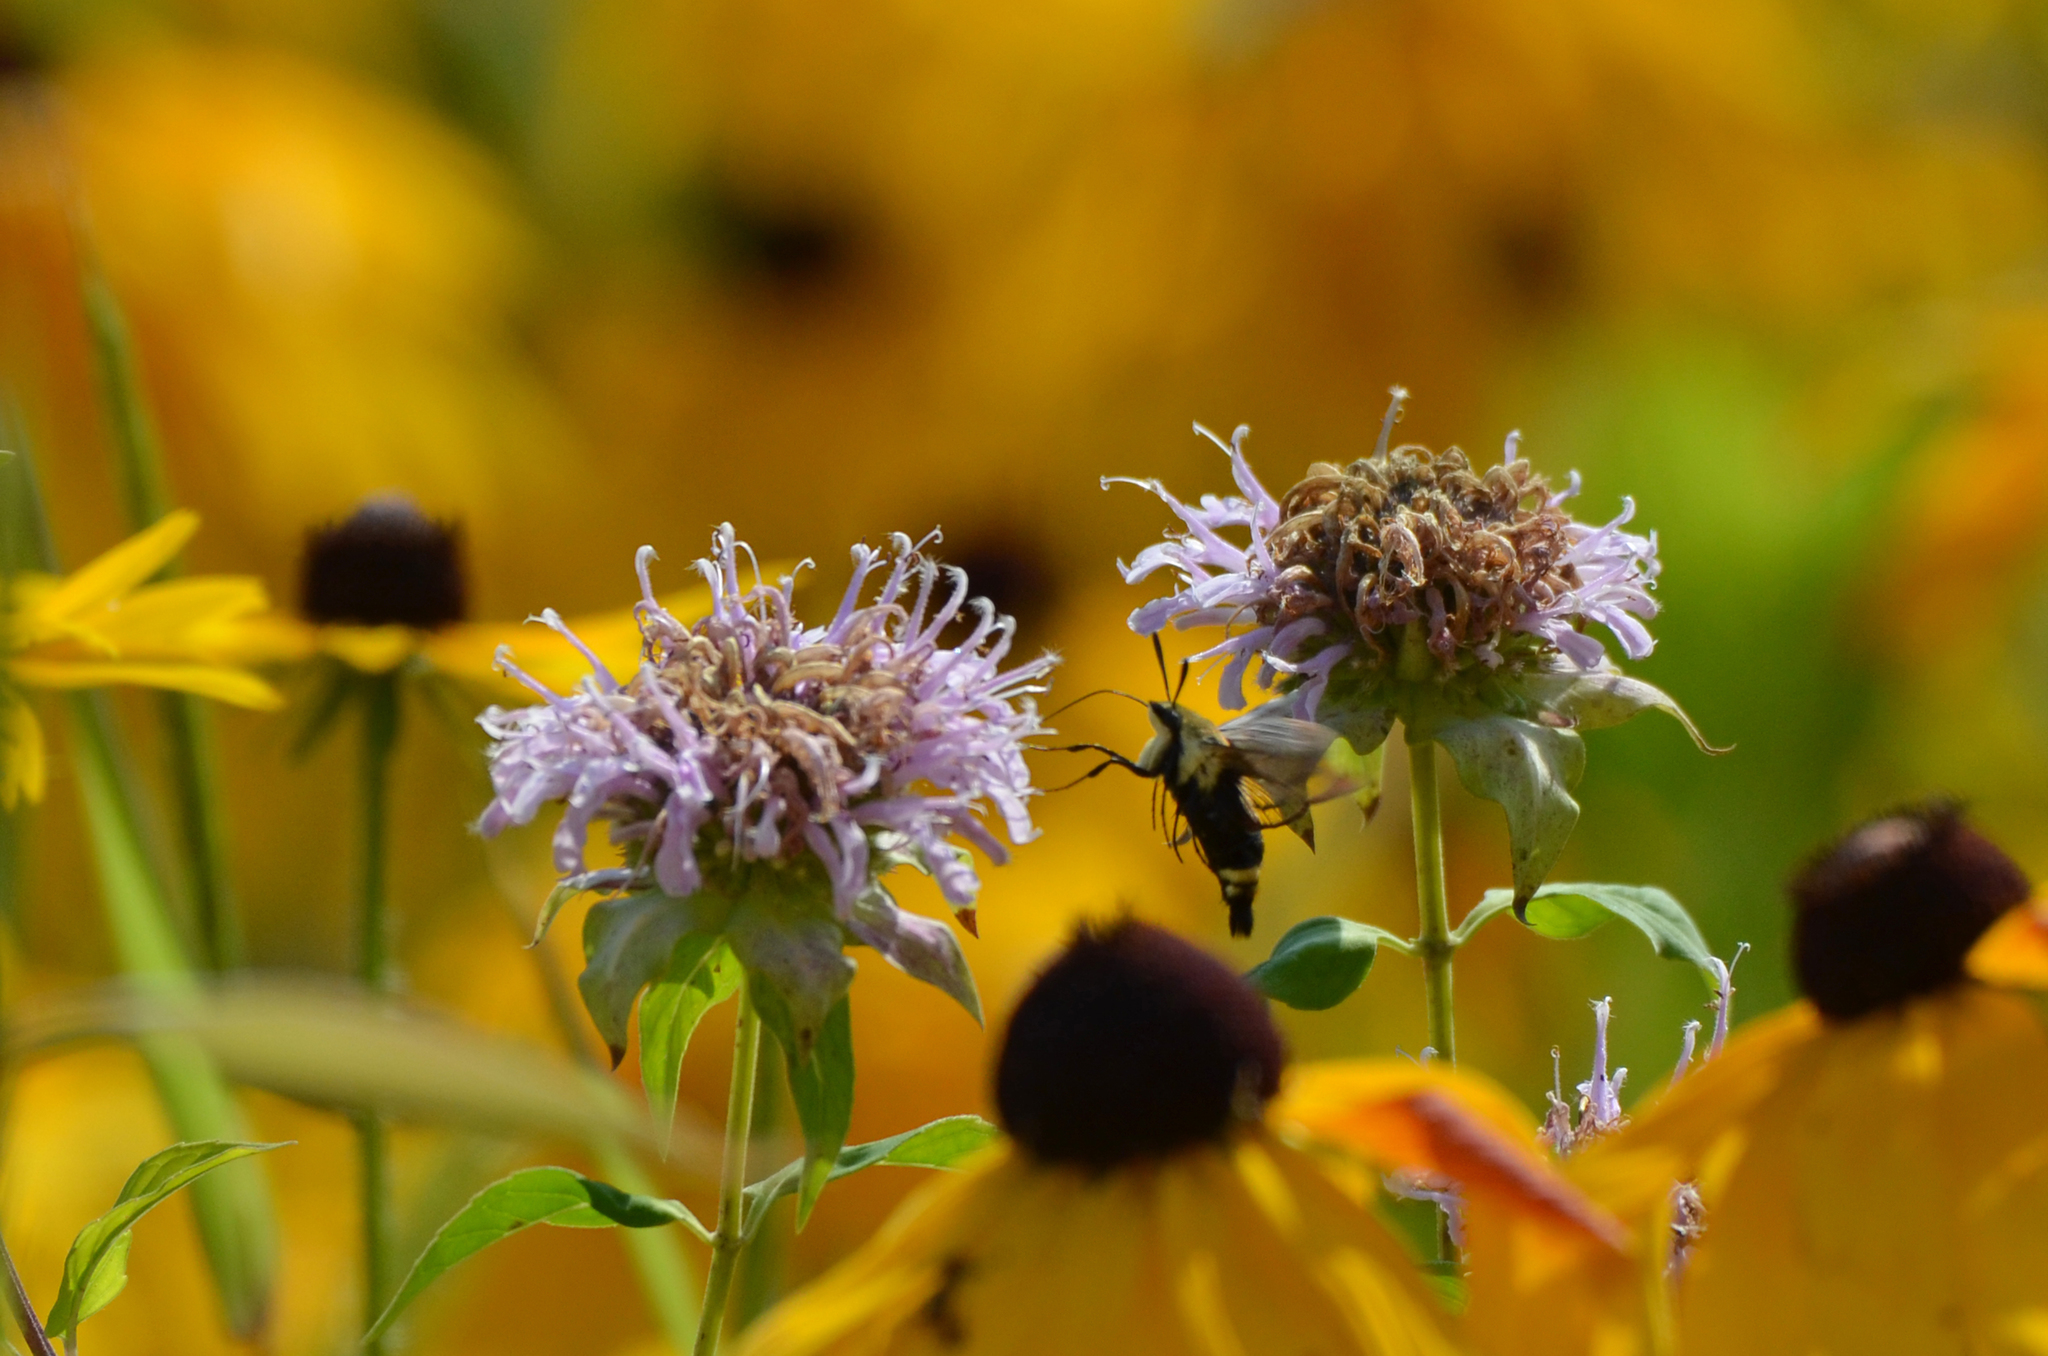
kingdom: Animalia
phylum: Arthropoda
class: Insecta
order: Lepidoptera
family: Sphingidae
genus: Hemaris
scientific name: Hemaris diffinis
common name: Bumblebee moth
